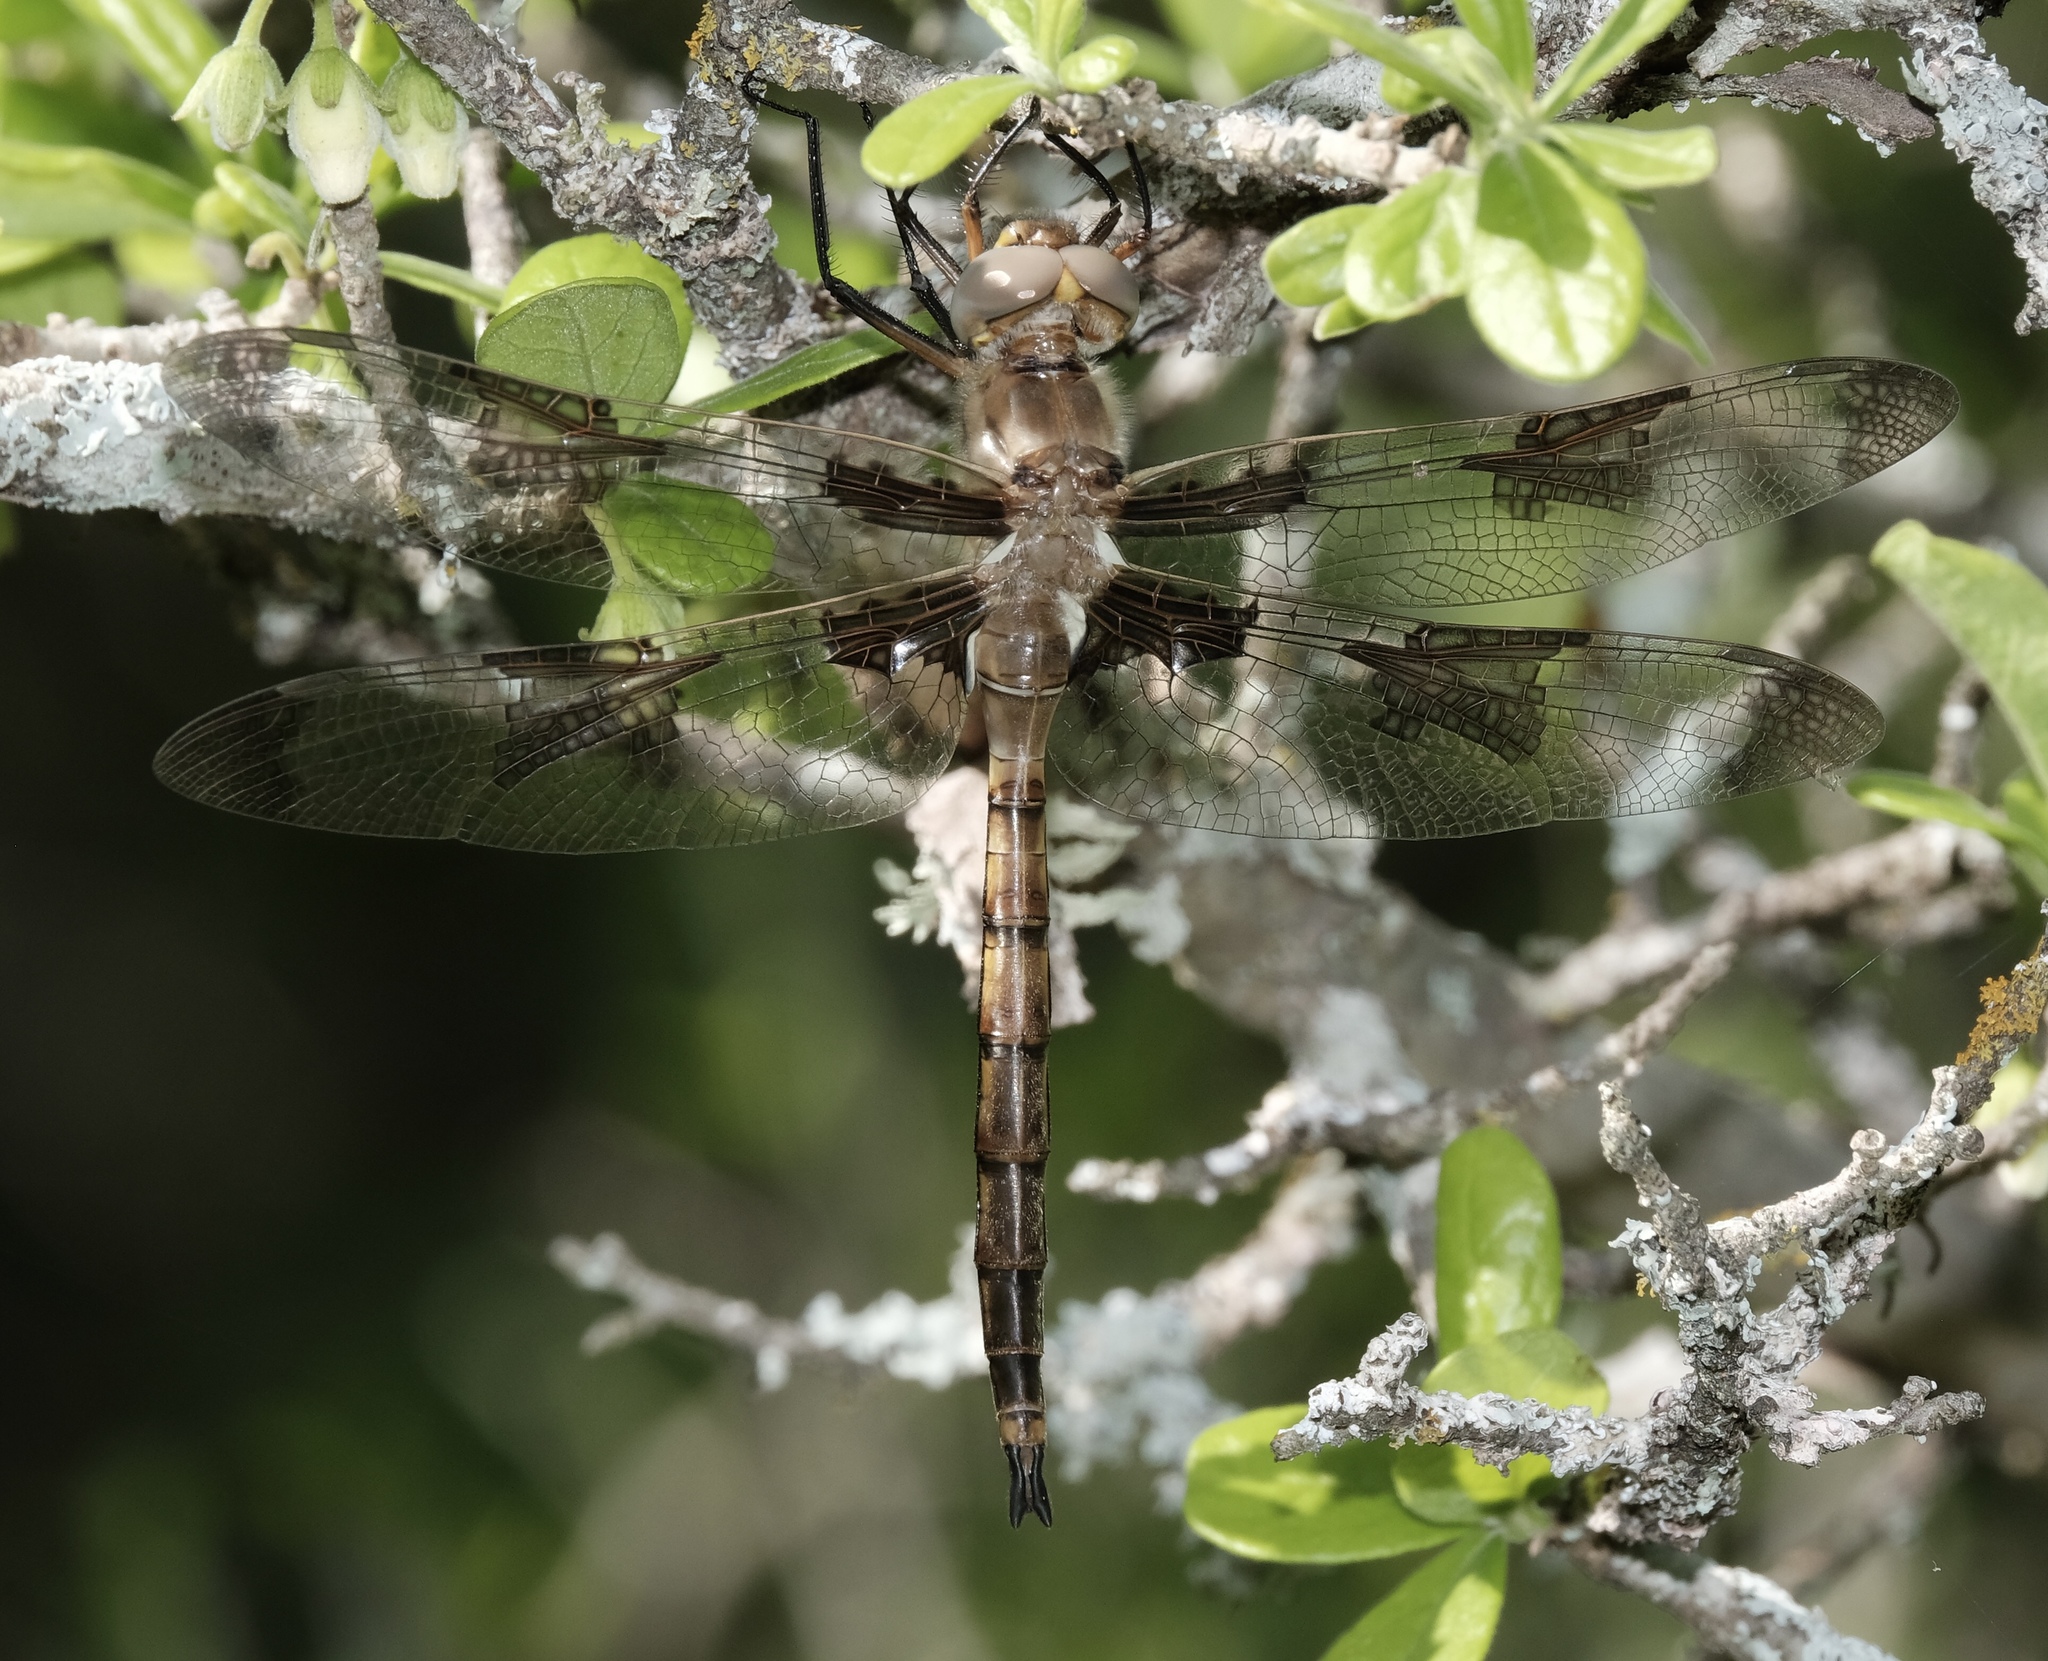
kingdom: Animalia
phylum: Arthropoda
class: Insecta
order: Odonata
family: Corduliidae
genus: Epitheca
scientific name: Epitheca princeps
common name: Prince baskettail
